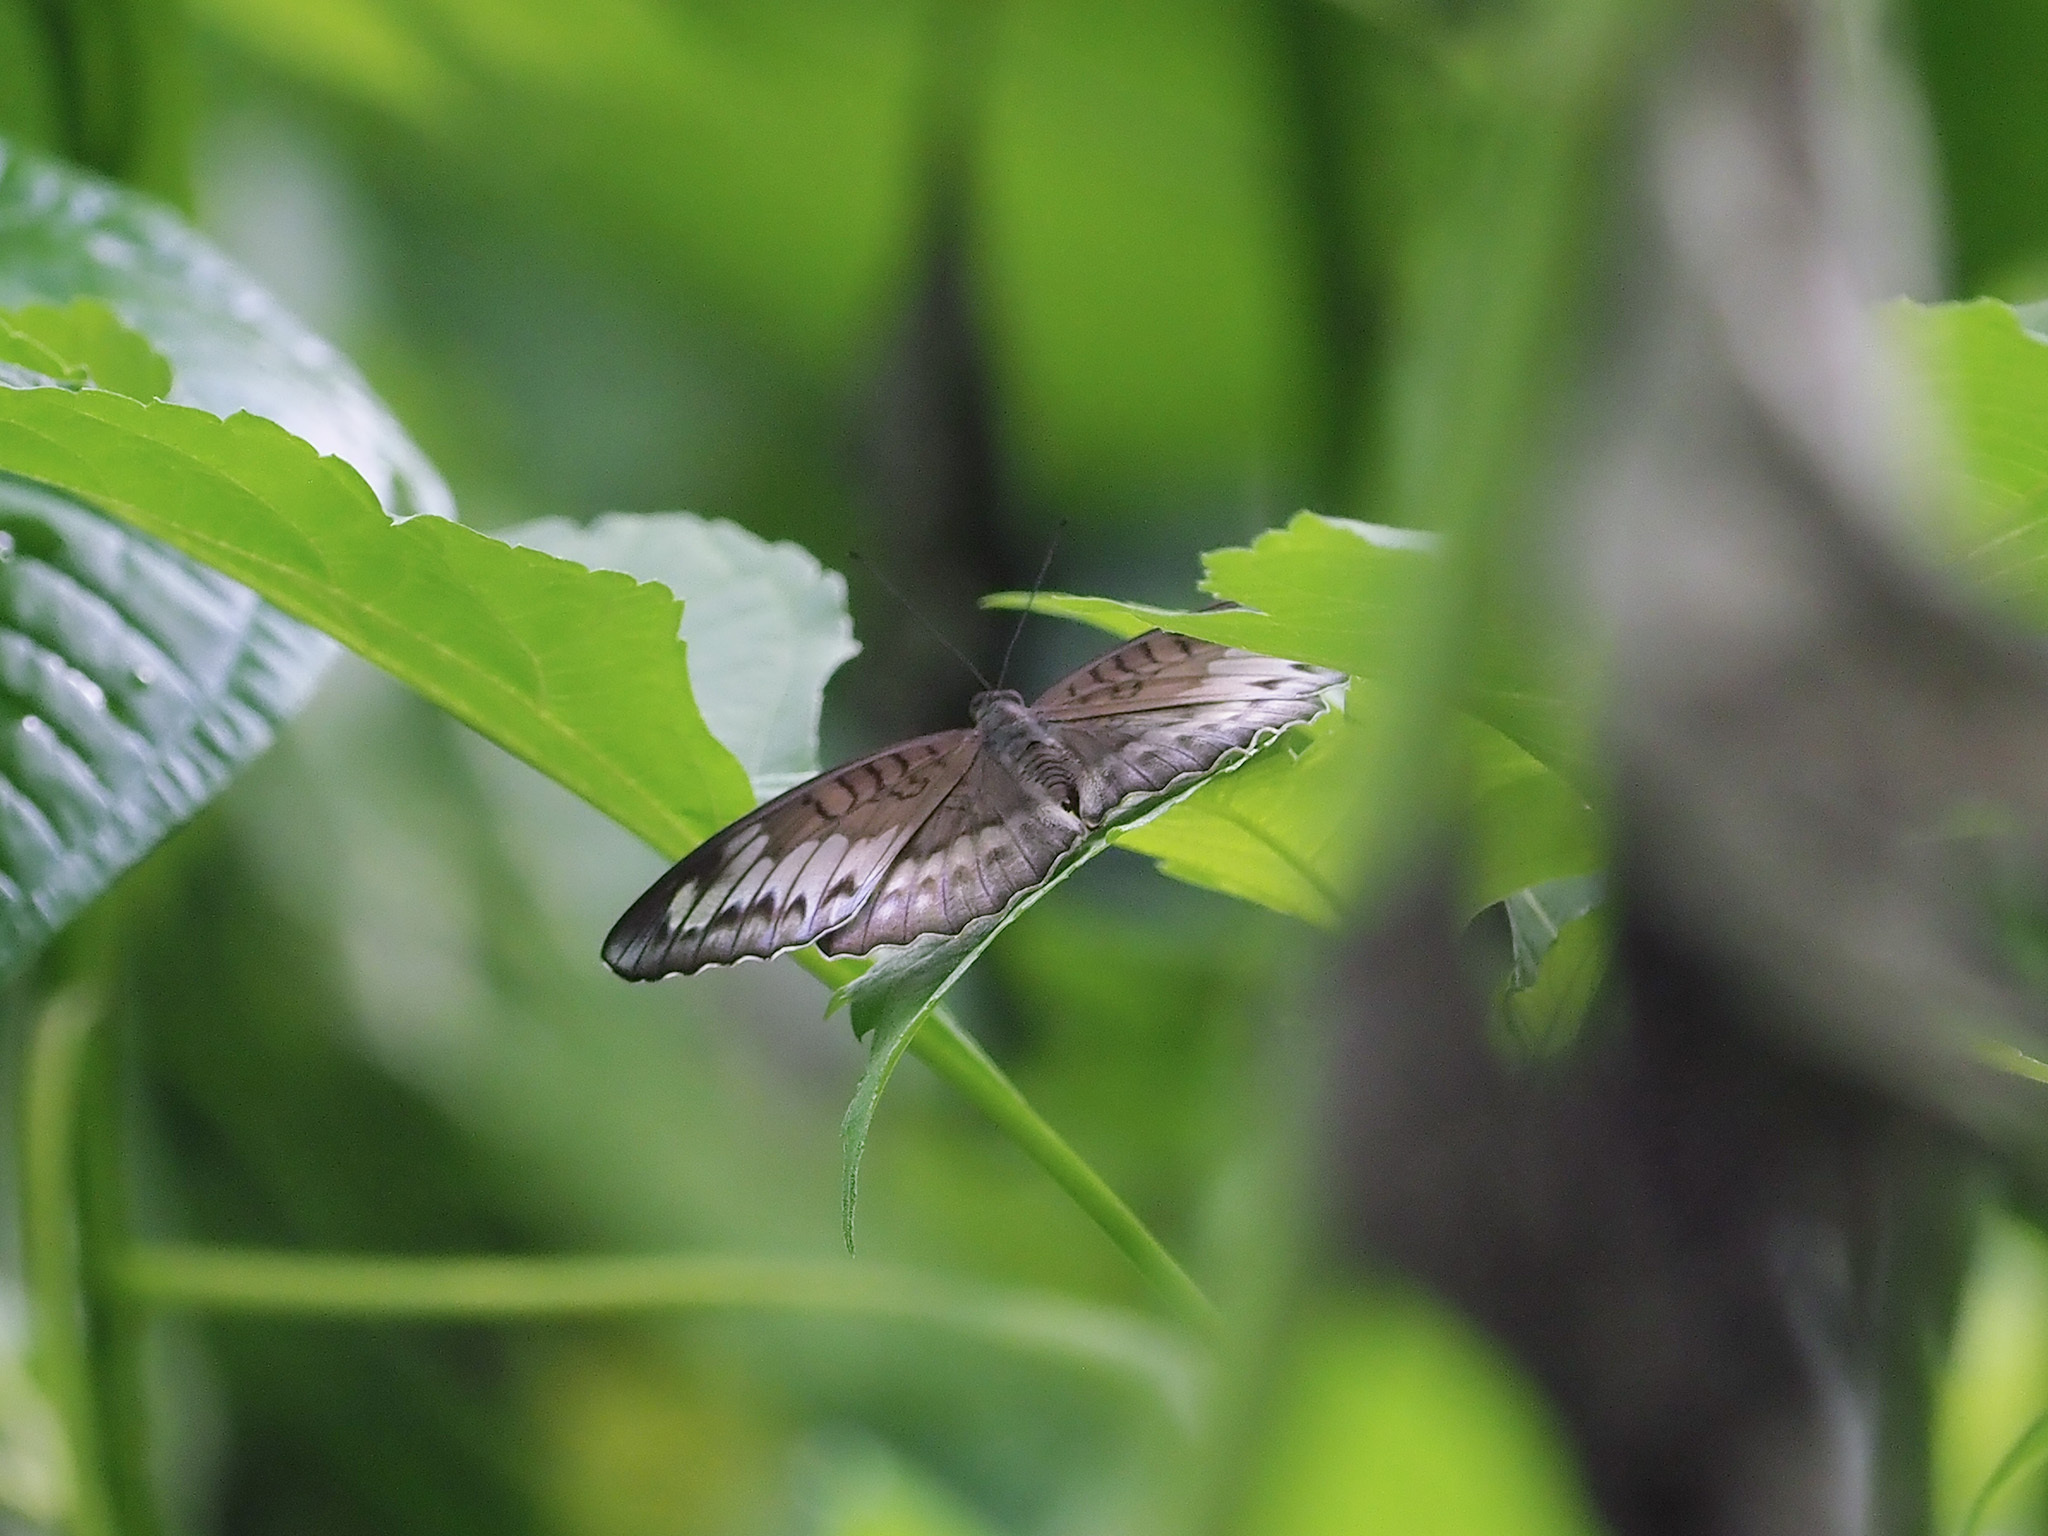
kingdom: Animalia
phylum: Arthropoda
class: Insecta
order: Lepidoptera
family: Nymphalidae
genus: Tanaecia
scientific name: Tanaecia iapis
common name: Horsfield's baron
